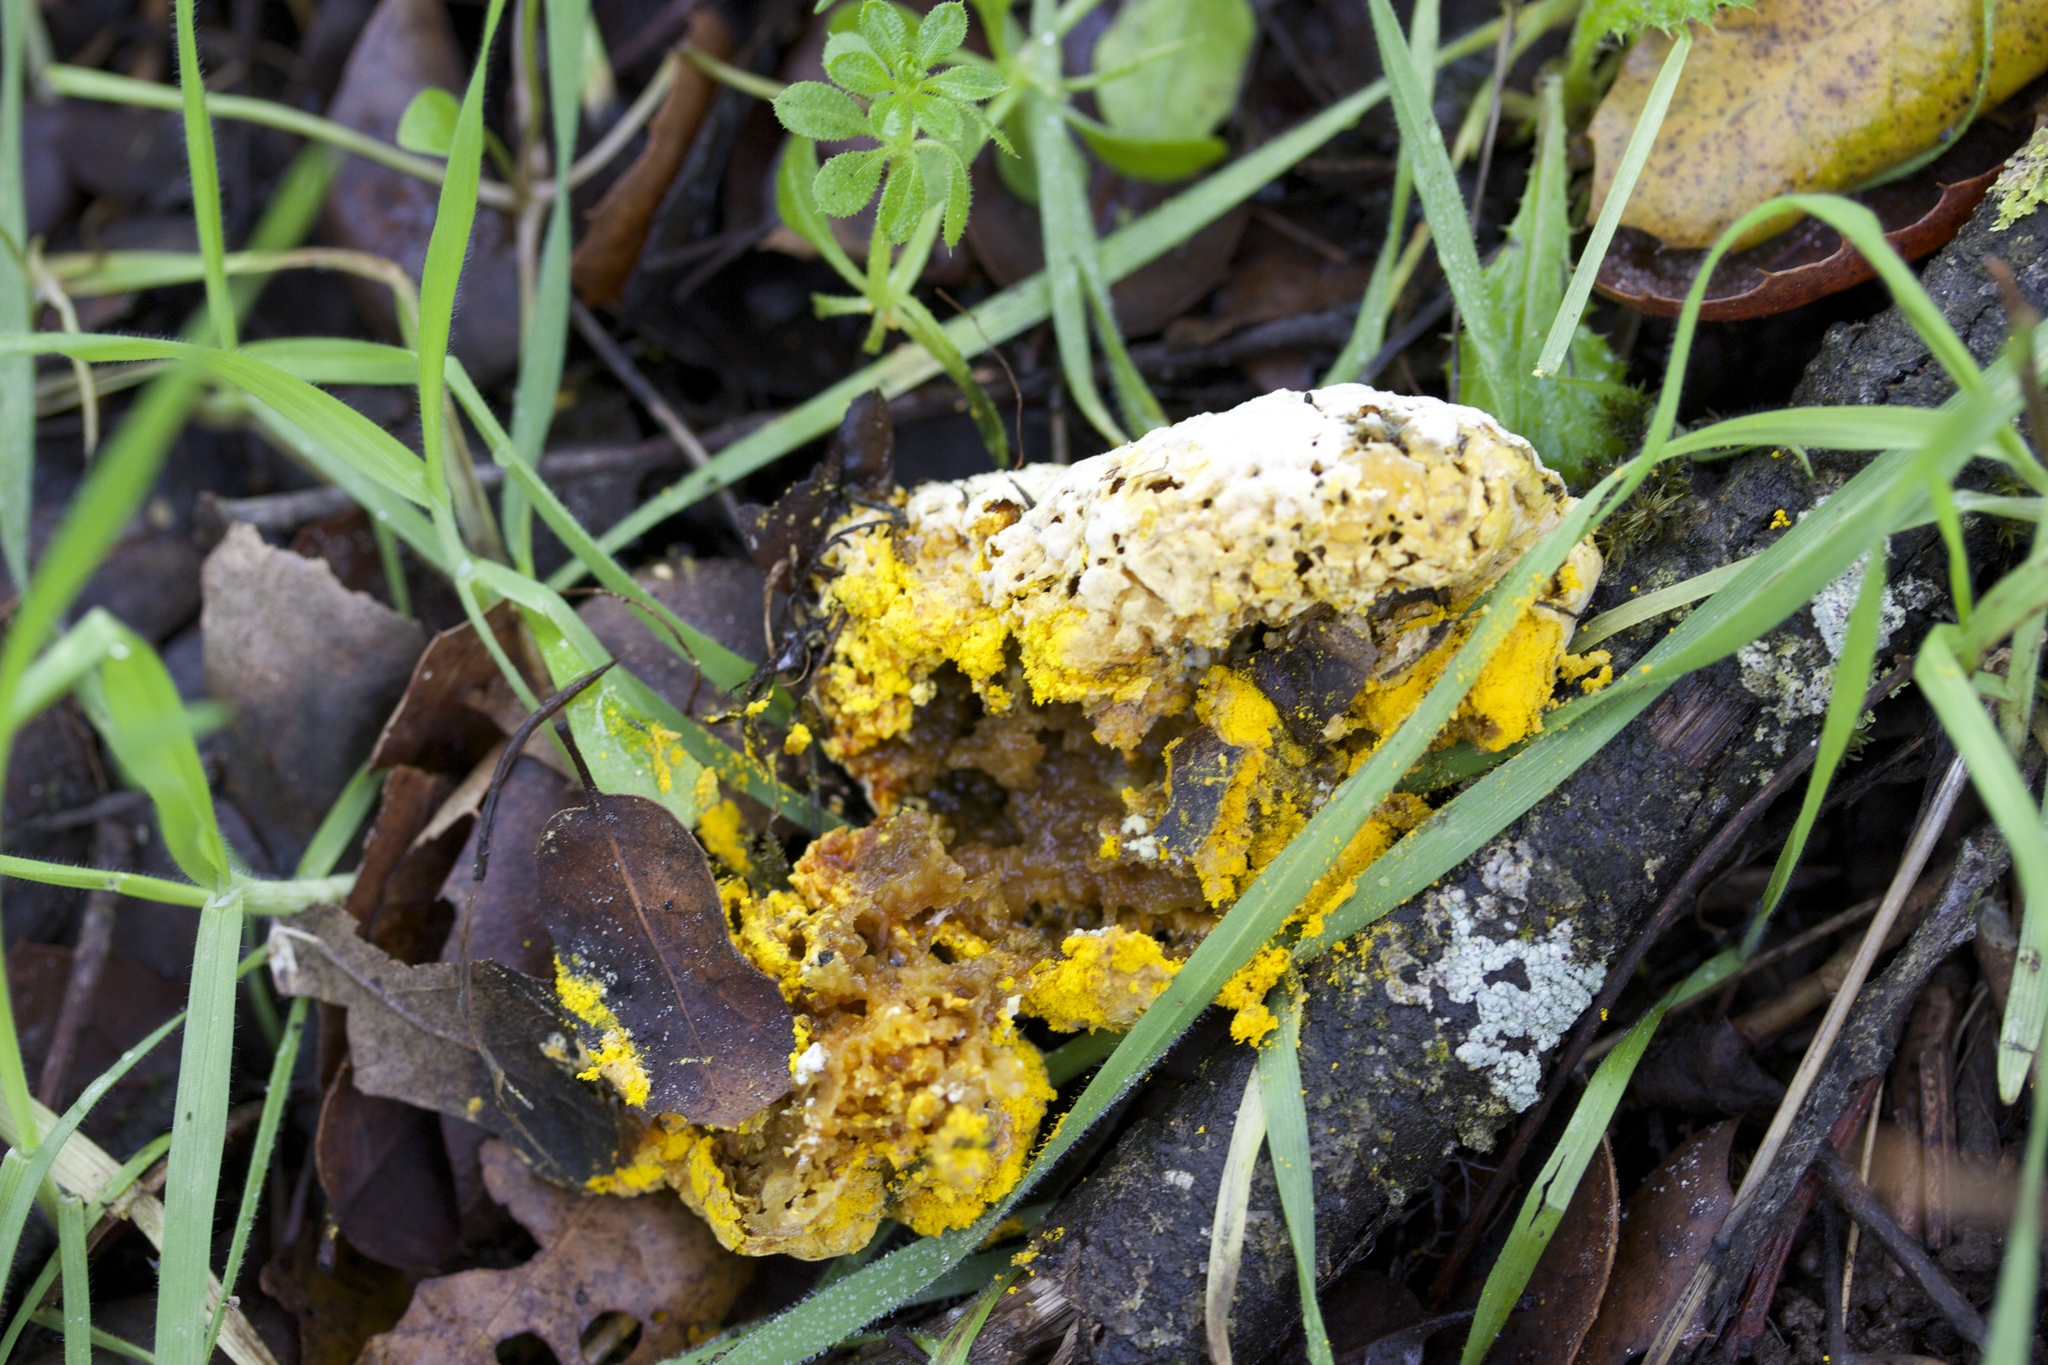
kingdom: Fungi
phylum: Ascomycota
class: Sordariomycetes
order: Hypocreales
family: Hypocreaceae
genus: Hypomyces
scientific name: Hypomyces microspermus
